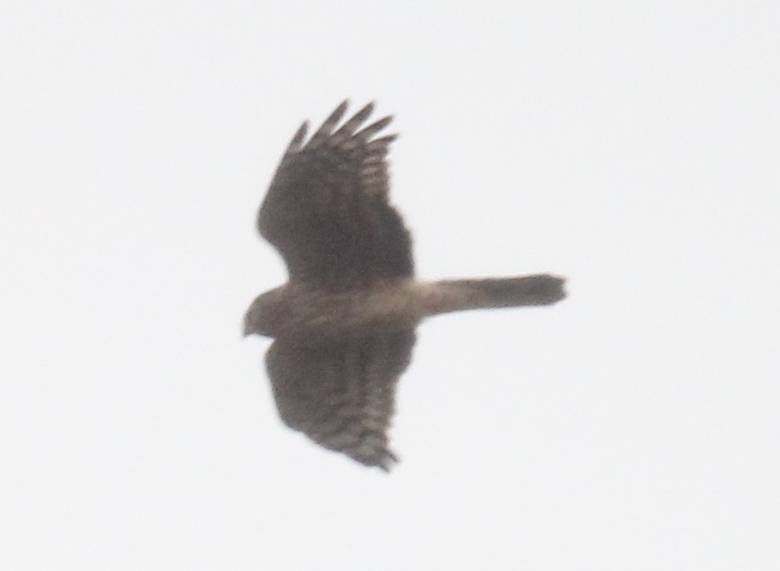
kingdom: Animalia
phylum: Chordata
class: Aves
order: Accipitriformes
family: Accipitridae
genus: Circus
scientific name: Circus cyaneus
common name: Hen harrier
